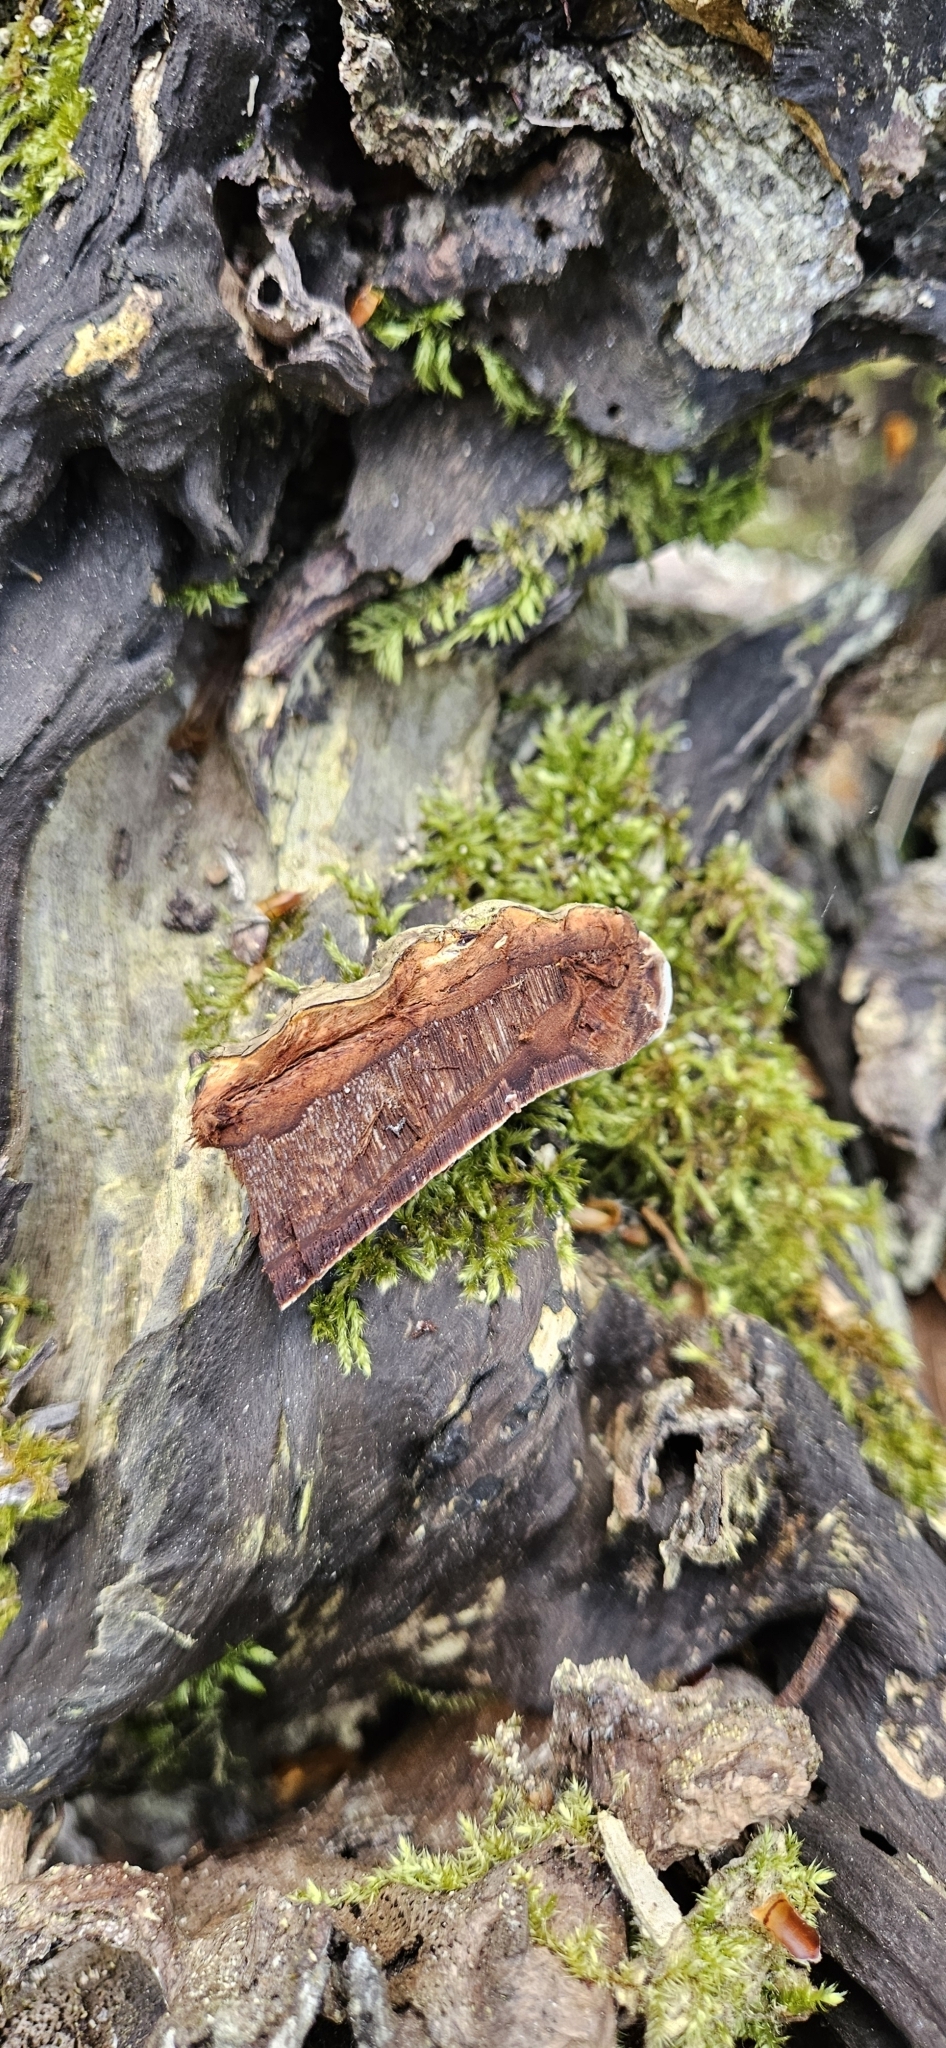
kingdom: Fungi
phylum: Basidiomycota
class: Agaricomycetes
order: Polyporales
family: Polyporaceae
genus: Ganoderma
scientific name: Ganoderma applanatum
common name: Artist's bracket
